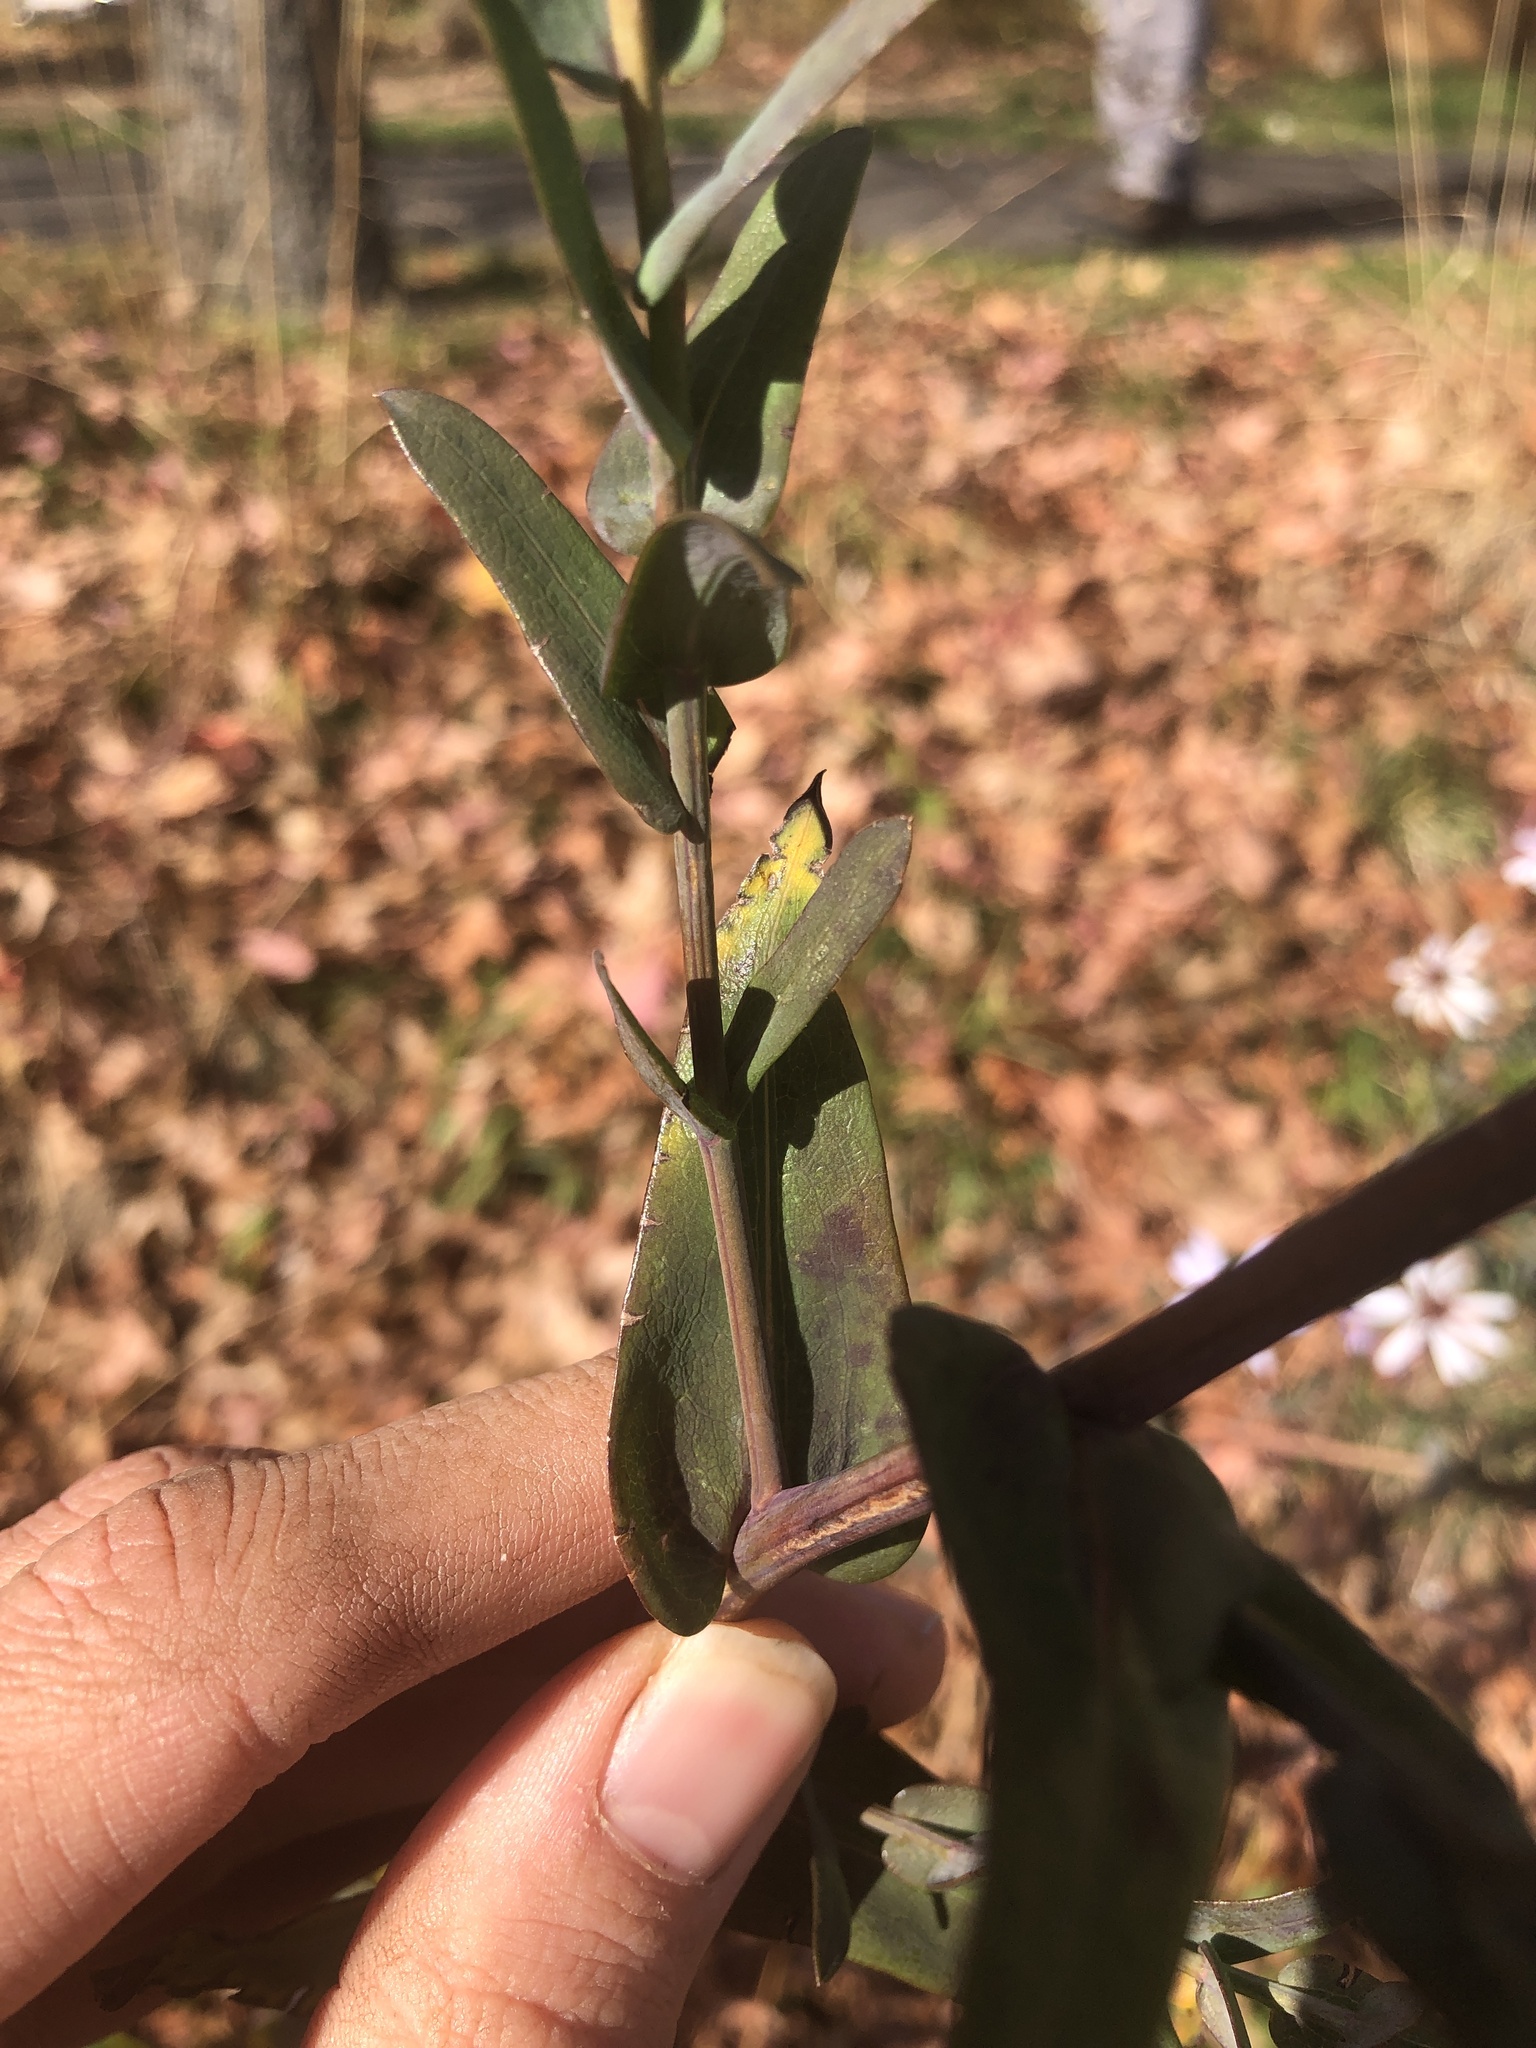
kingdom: Plantae
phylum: Tracheophyta
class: Magnoliopsida
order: Asterales
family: Asteraceae
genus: Symphyotrichum
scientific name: Symphyotrichum laeve
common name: Glaucous aster
